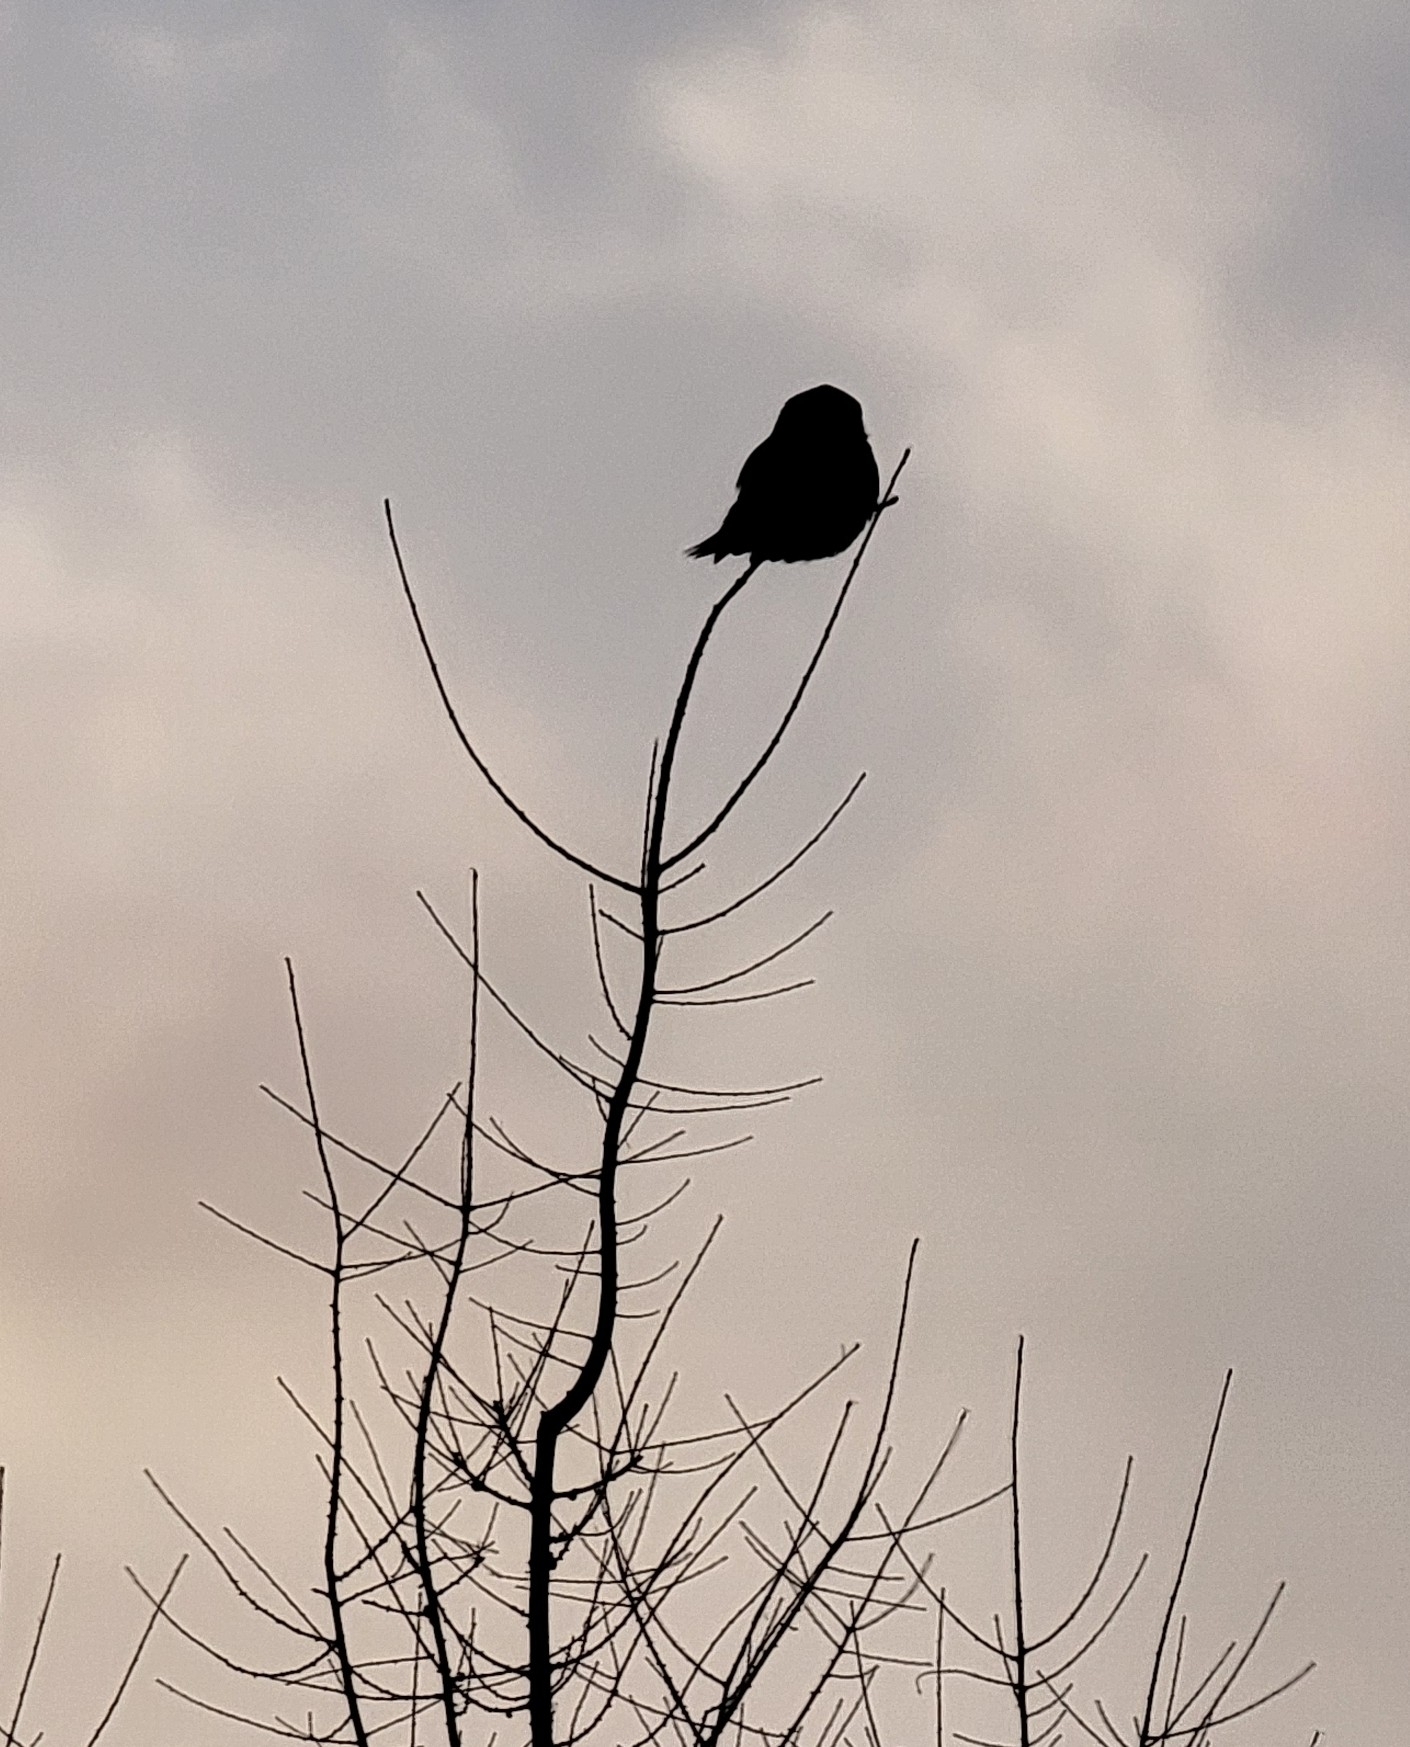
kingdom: Animalia
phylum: Chordata
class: Aves
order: Strigiformes
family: Strigidae
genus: Surnia
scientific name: Surnia ulula
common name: Northern hawk-owl
